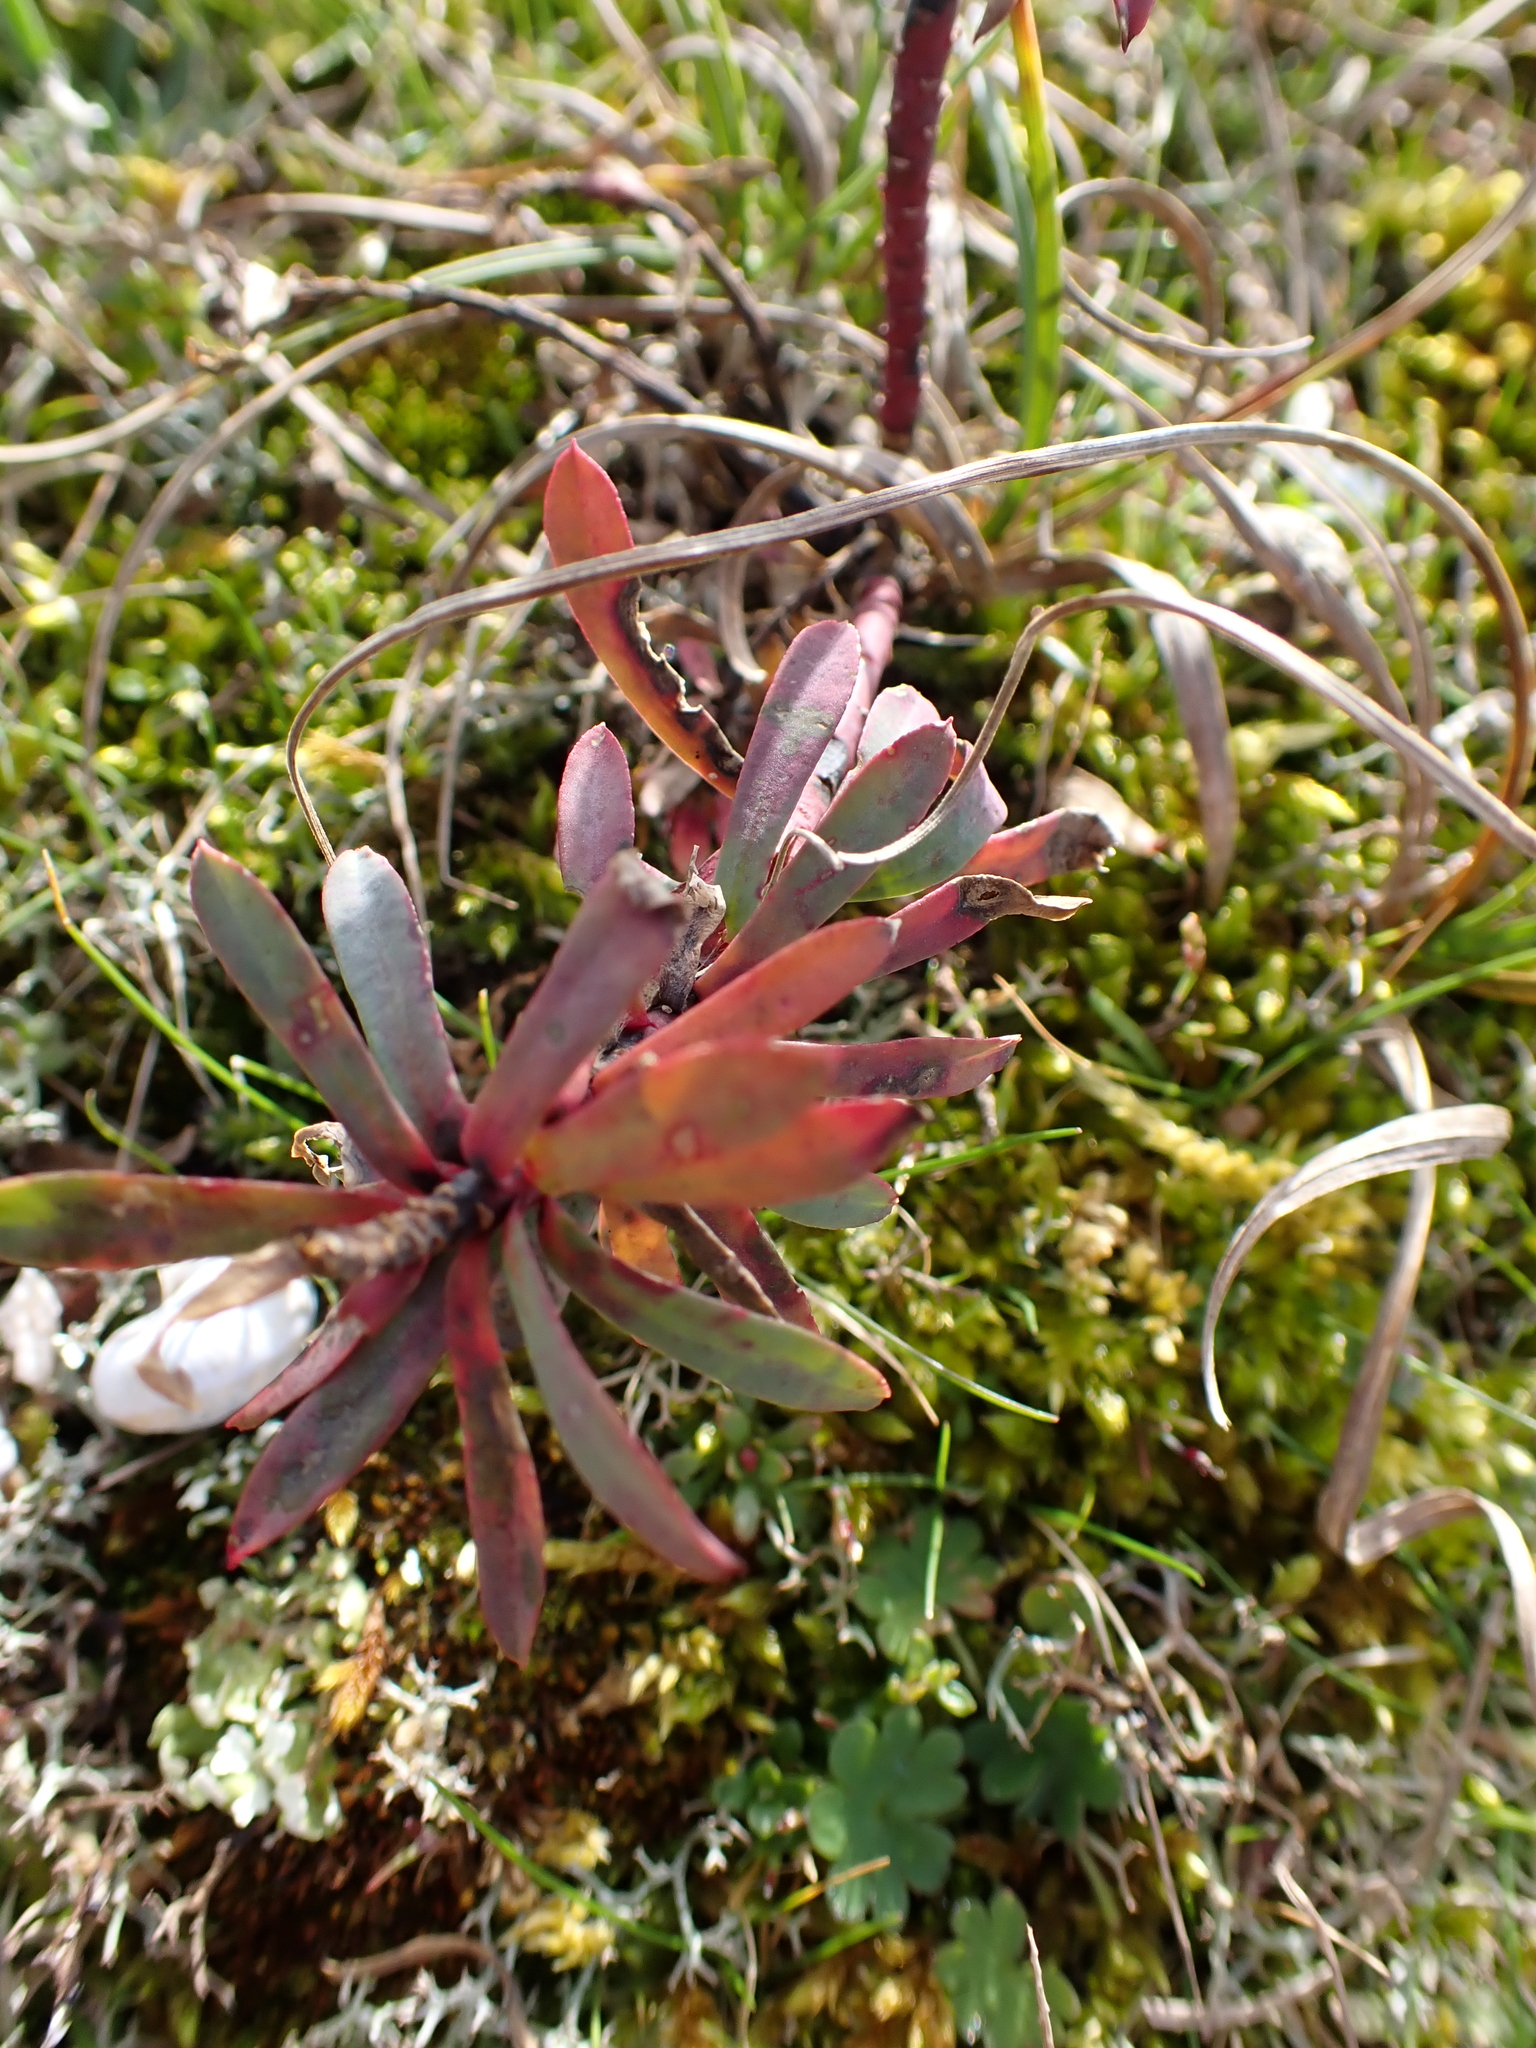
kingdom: Plantae
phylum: Tracheophyta
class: Magnoliopsida
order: Malpighiales
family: Euphorbiaceae
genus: Euphorbia
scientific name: Euphorbia portlandica
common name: Portland spurge
